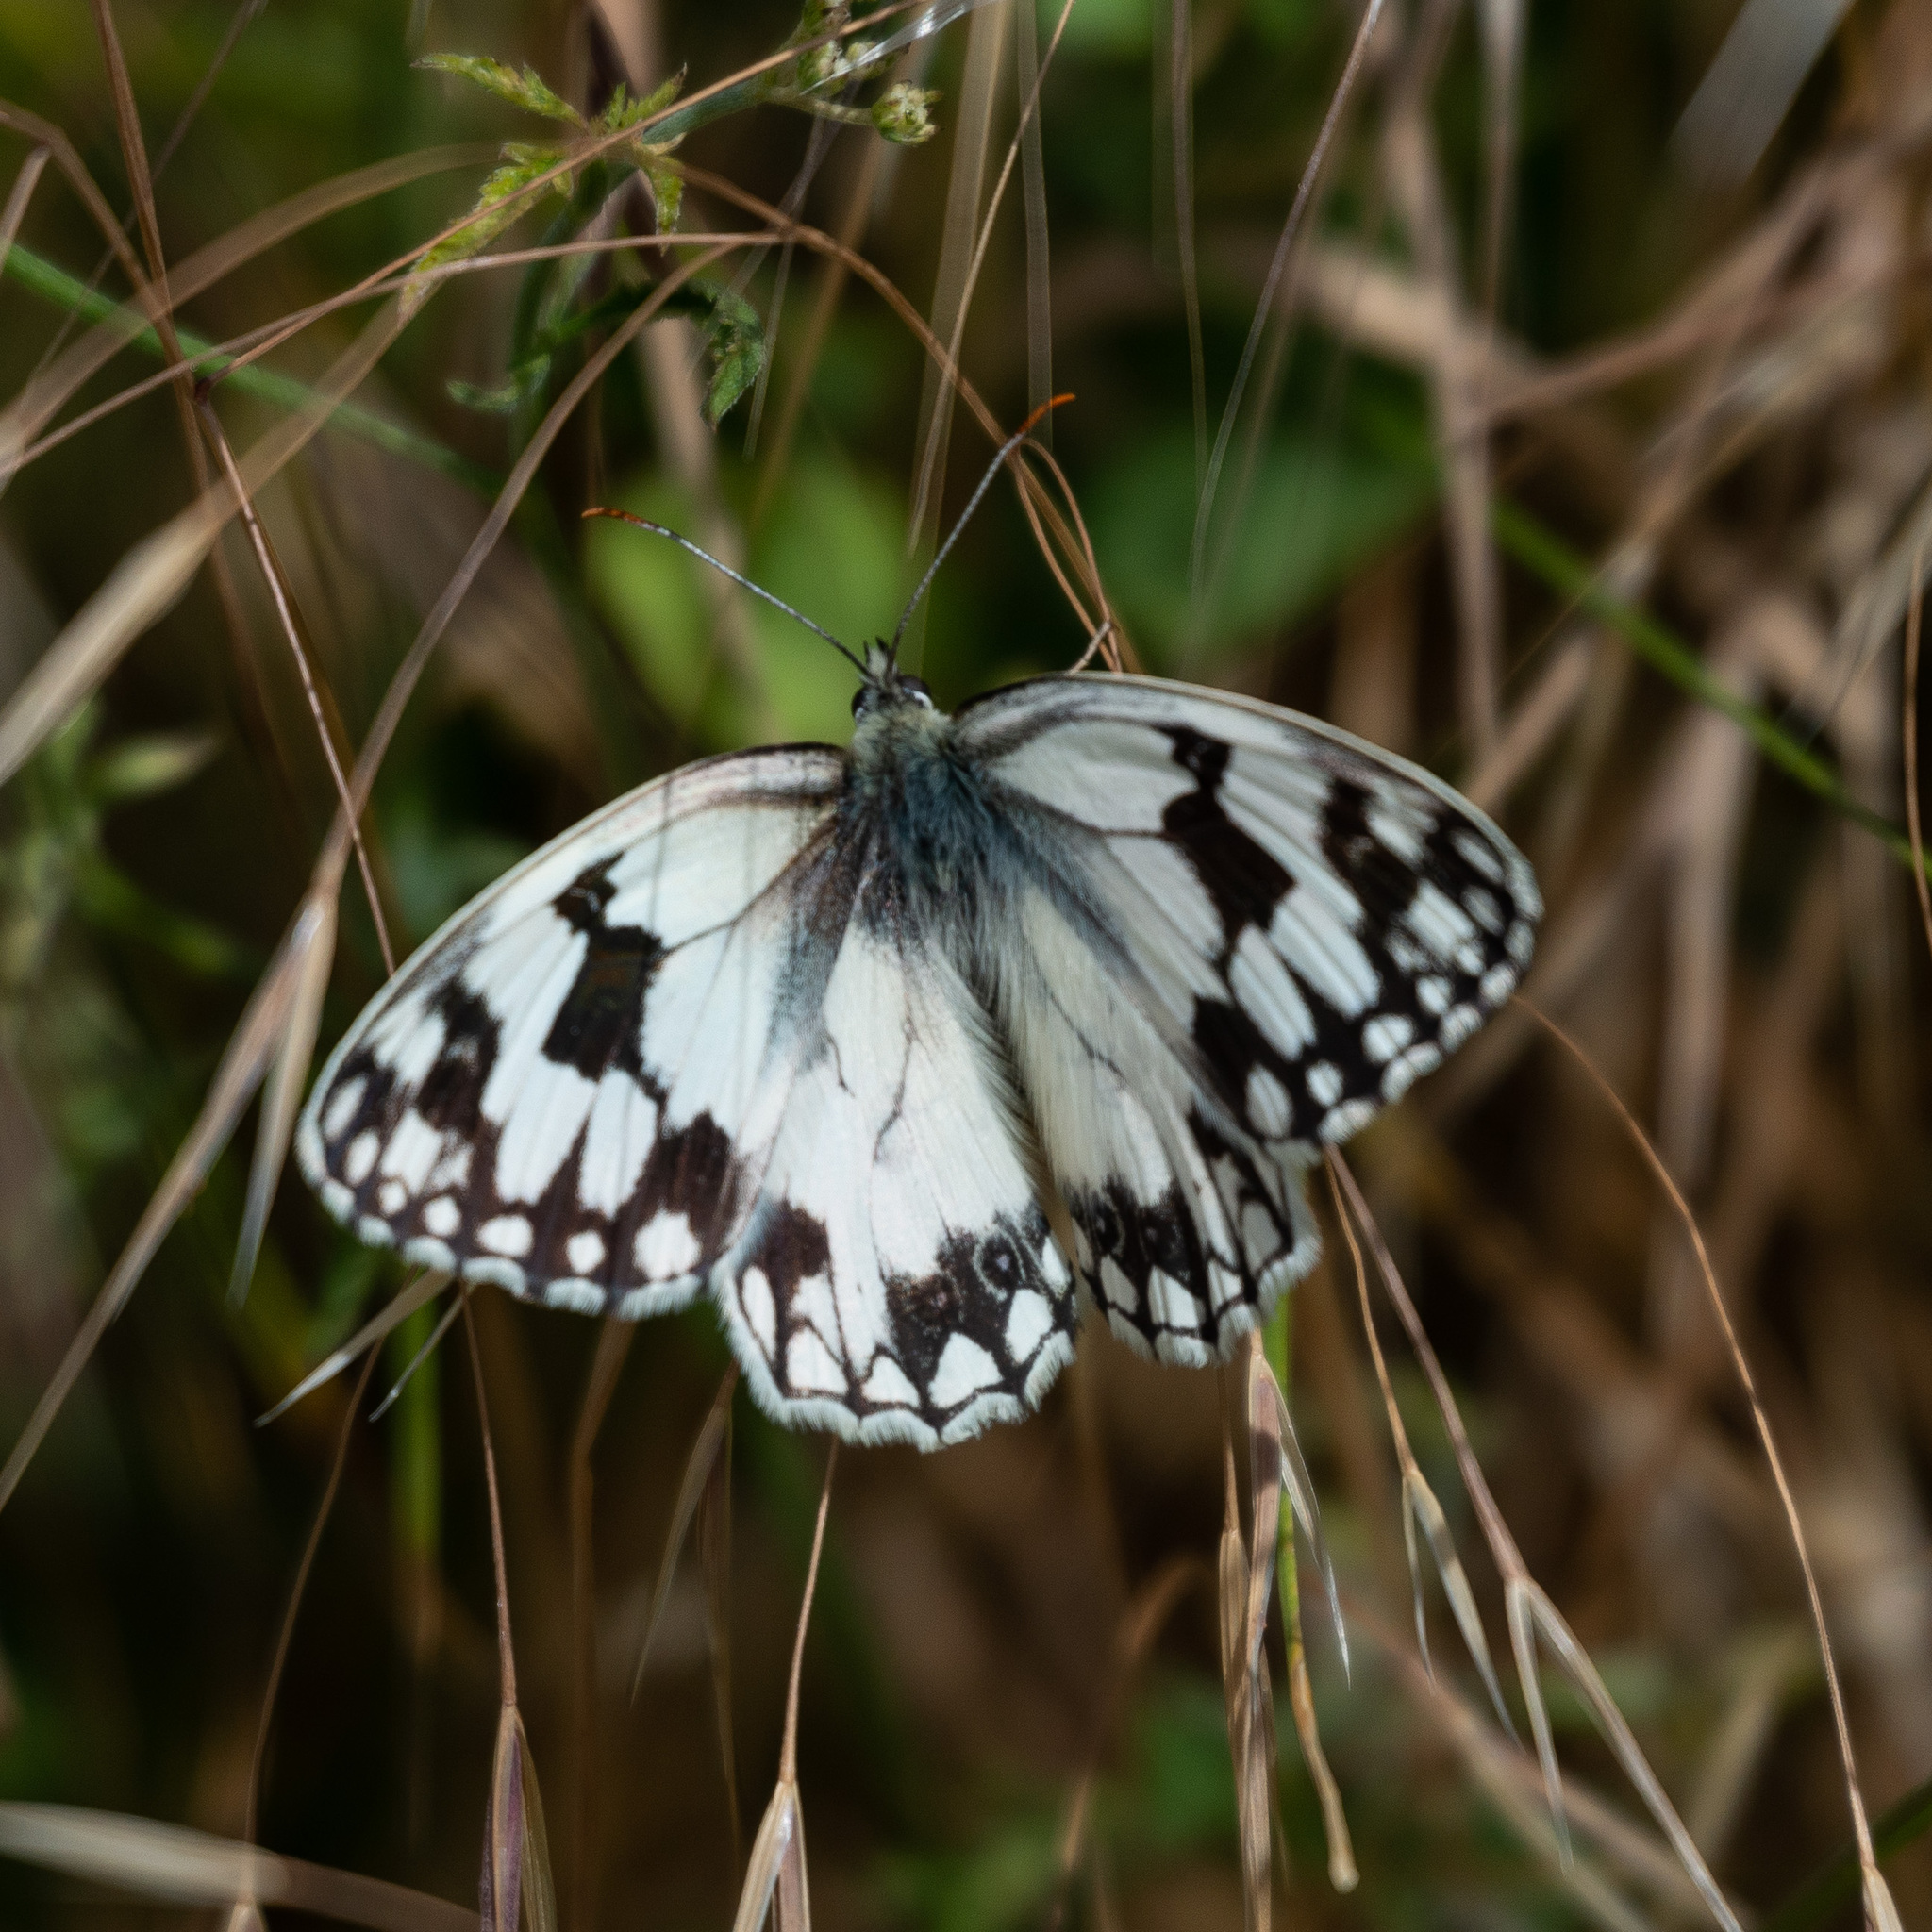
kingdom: Animalia
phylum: Arthropoda
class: Insecta
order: Lepidoptera
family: Nymphalidae
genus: Melanargia
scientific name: Melanargia lachesis
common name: Iberian marbled white
